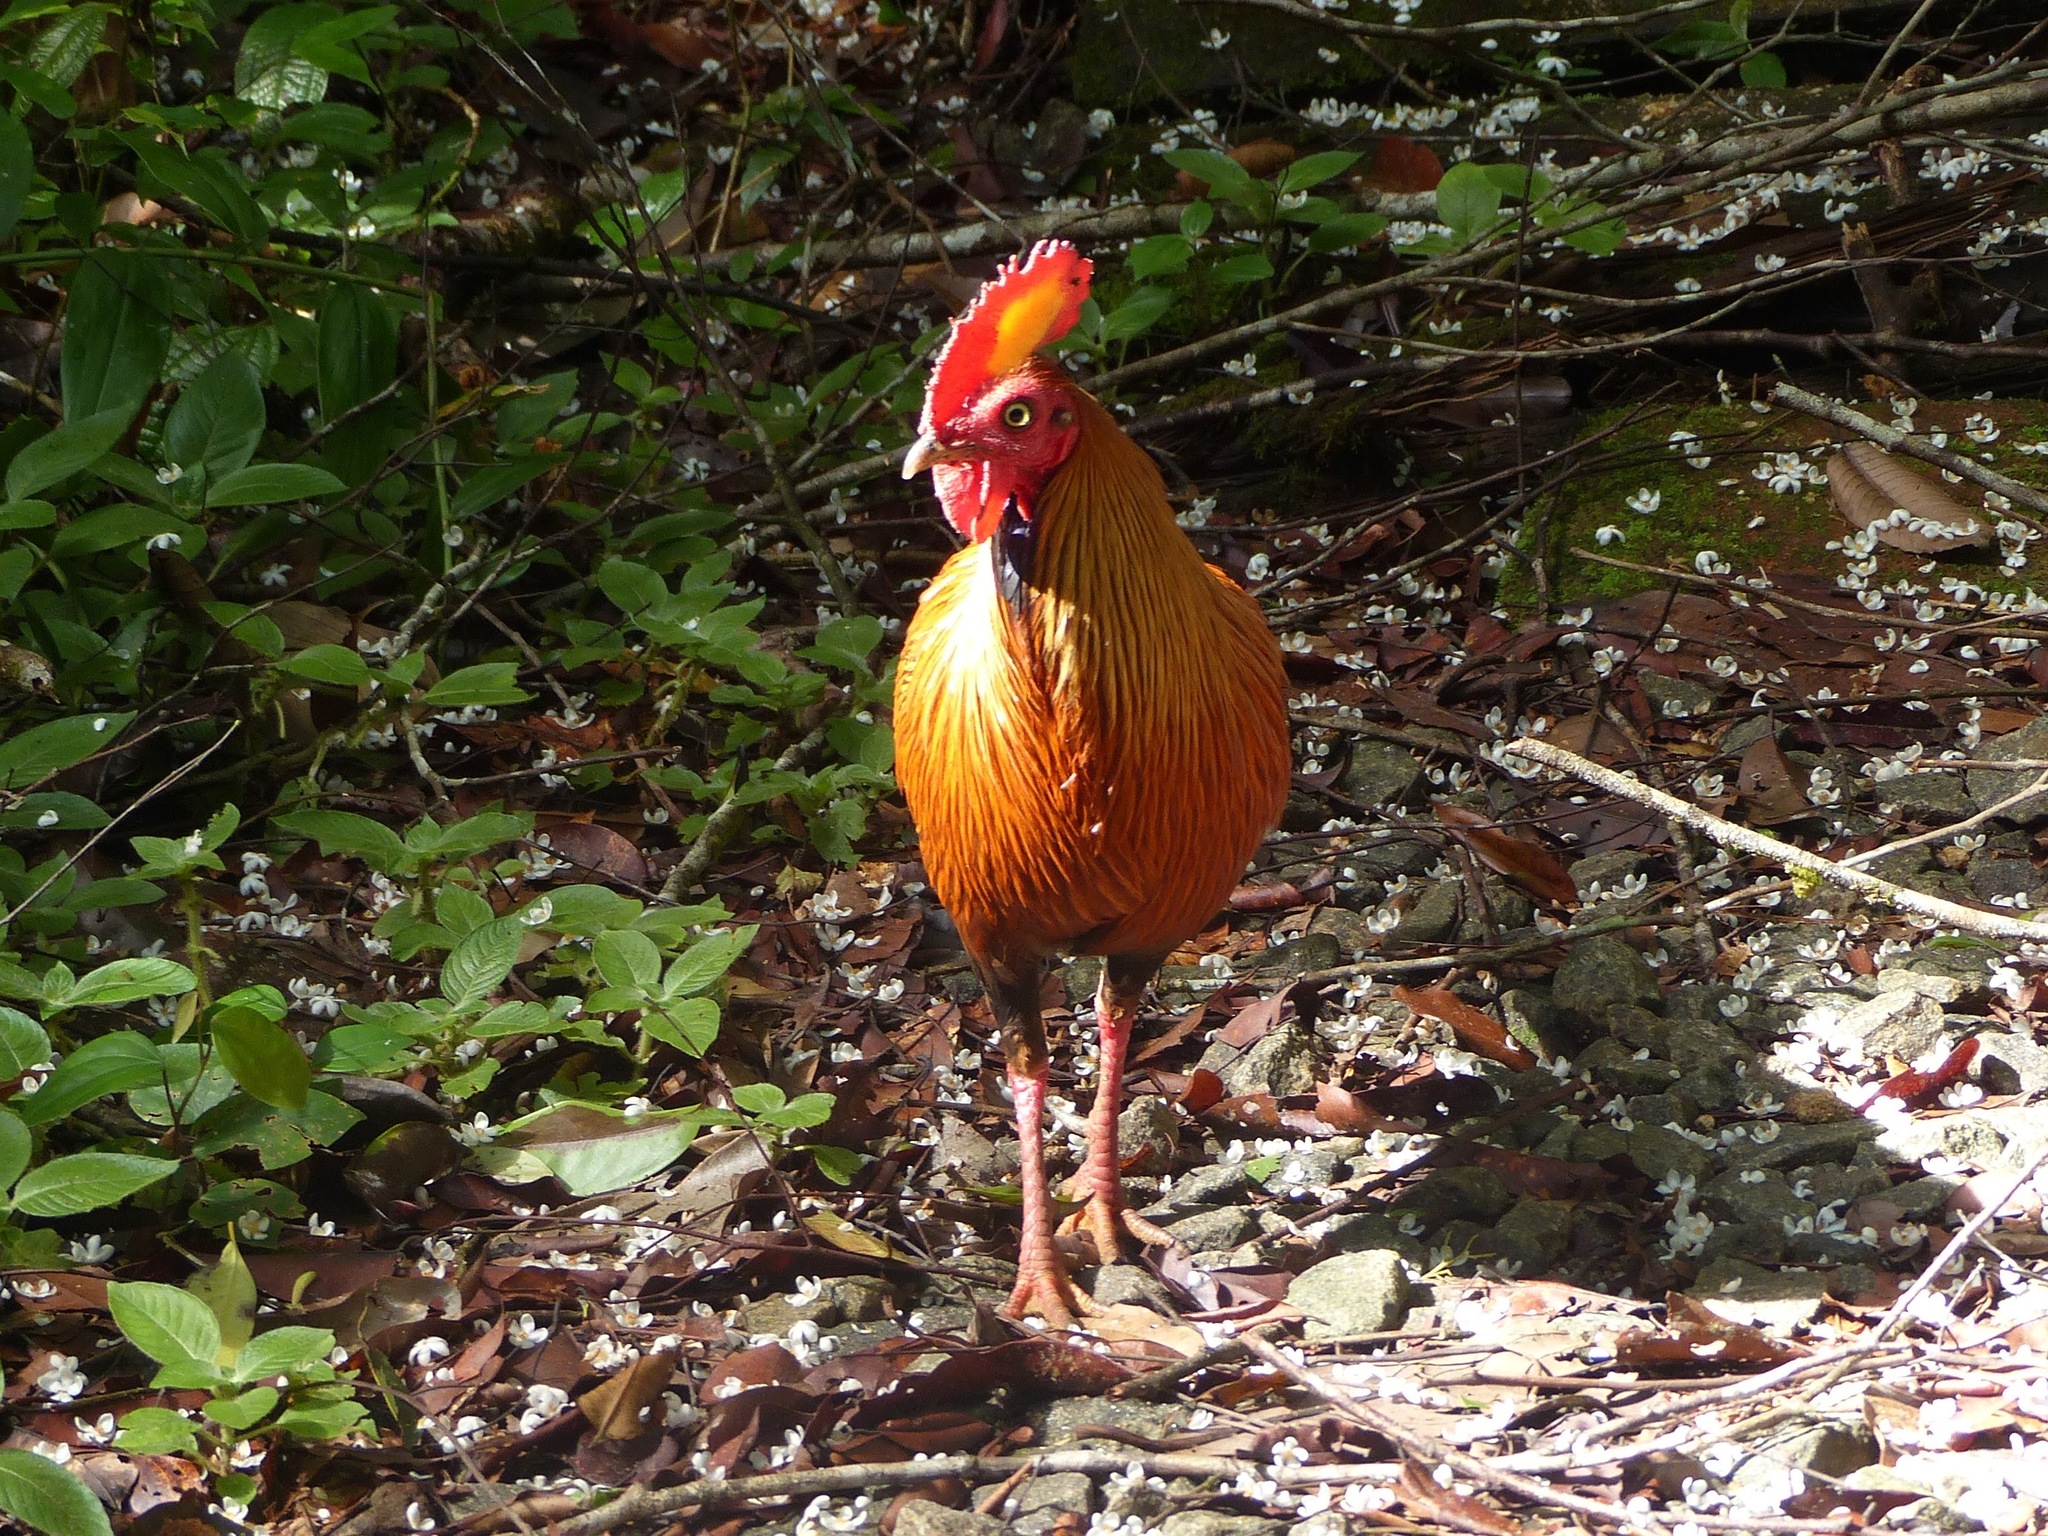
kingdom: Animalia
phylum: Chordata
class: Aves
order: Galliformes
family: Phasianidae
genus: Gallus
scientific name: Gallus lafayettii
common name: Sri lanka junglefowl
